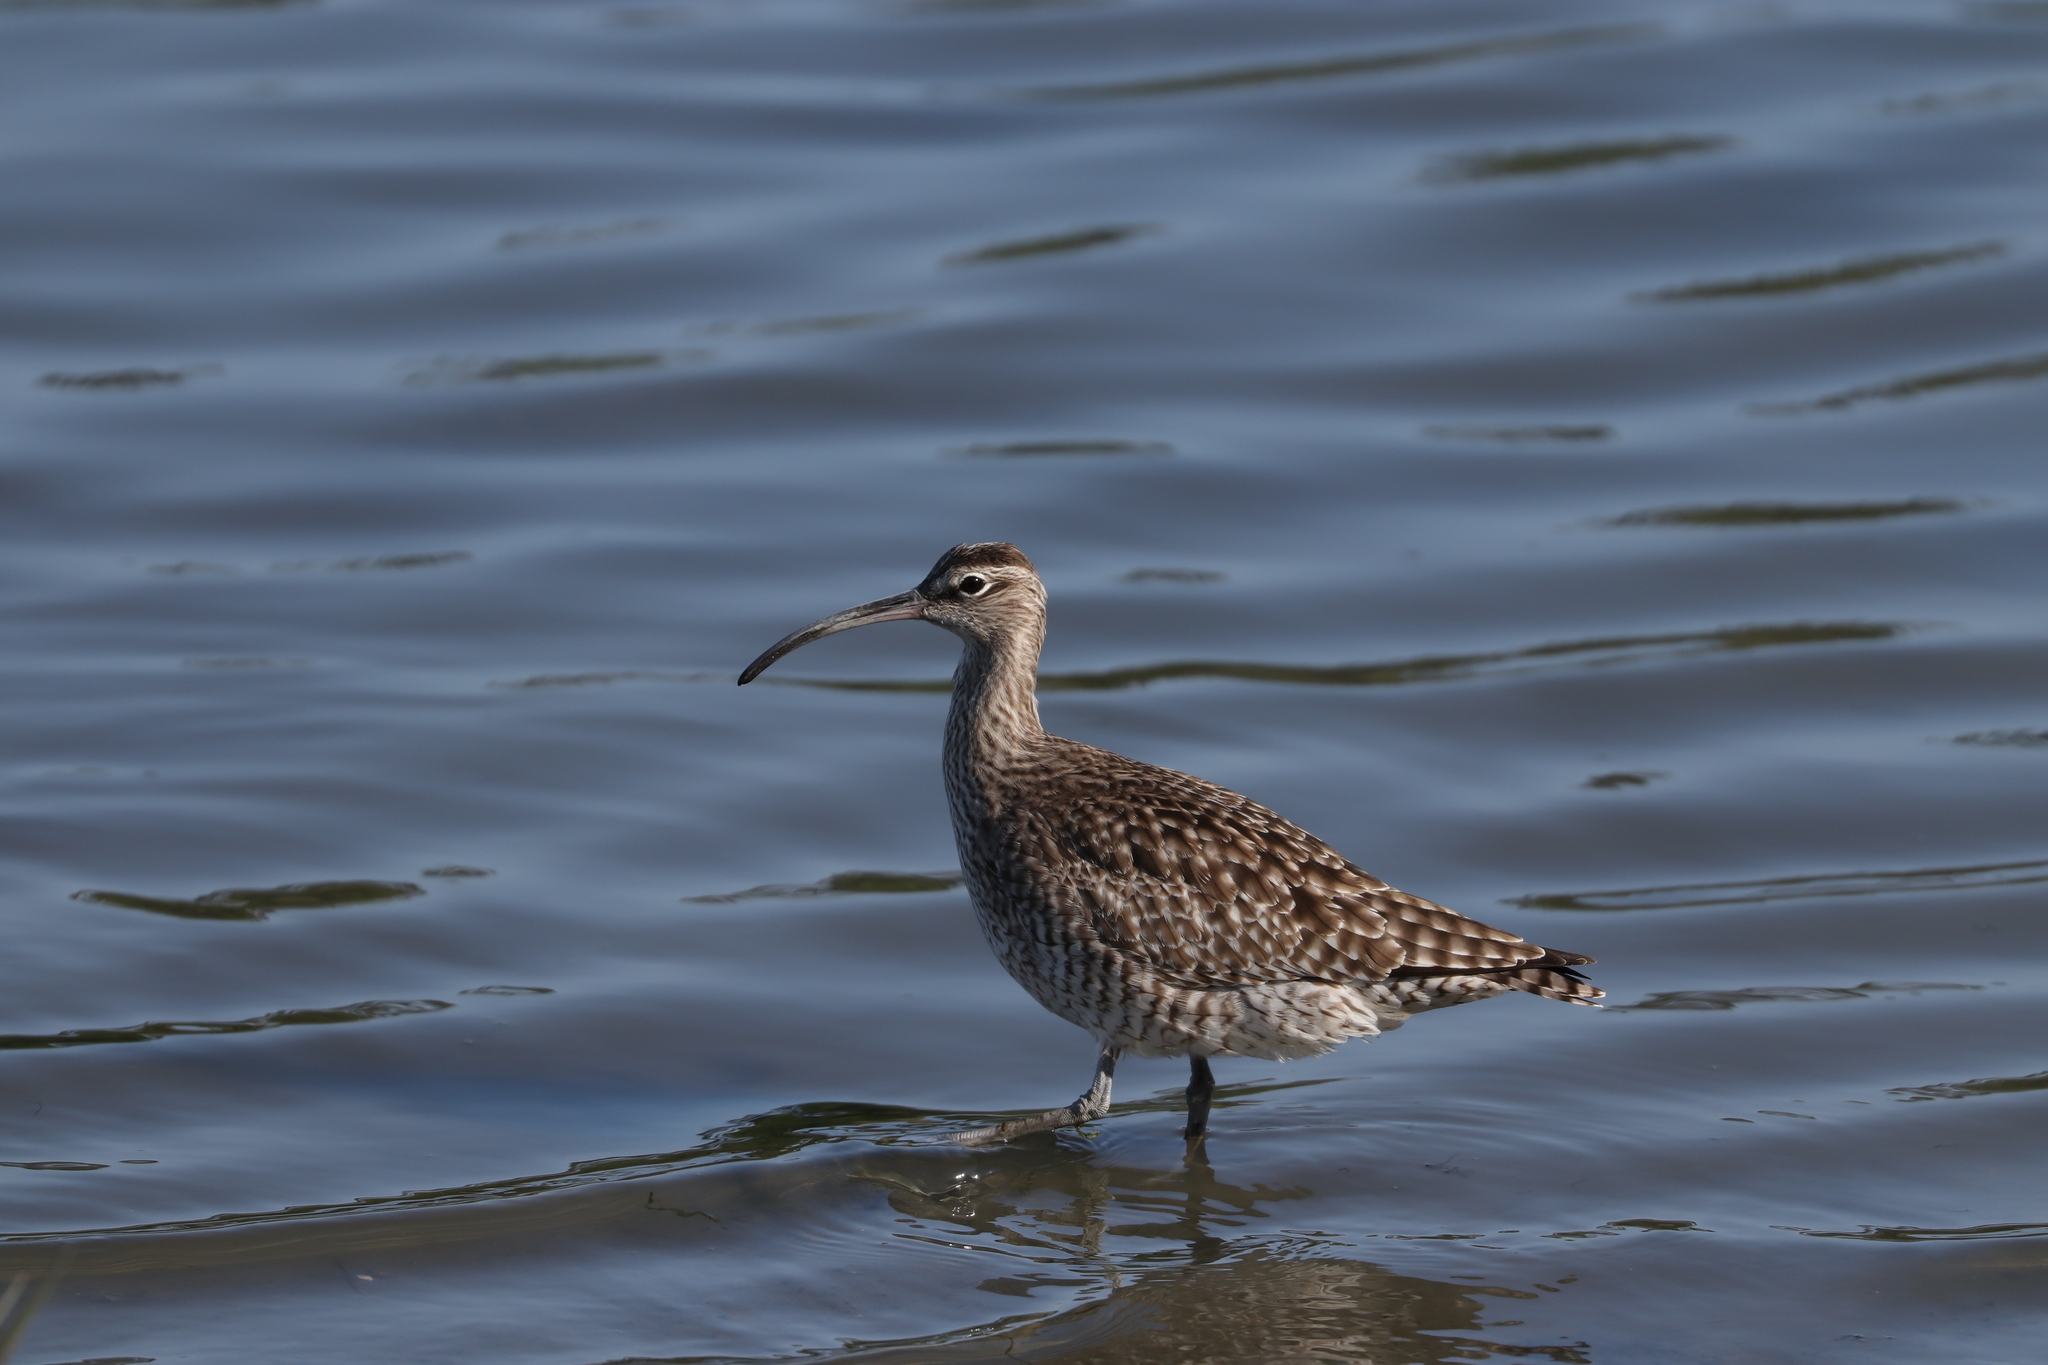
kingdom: Animalia
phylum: Chordata
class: Aves
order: Charadriiformes
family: Scolopacidae
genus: Numenius
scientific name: Numenius phaeopus
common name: Whimbrel
